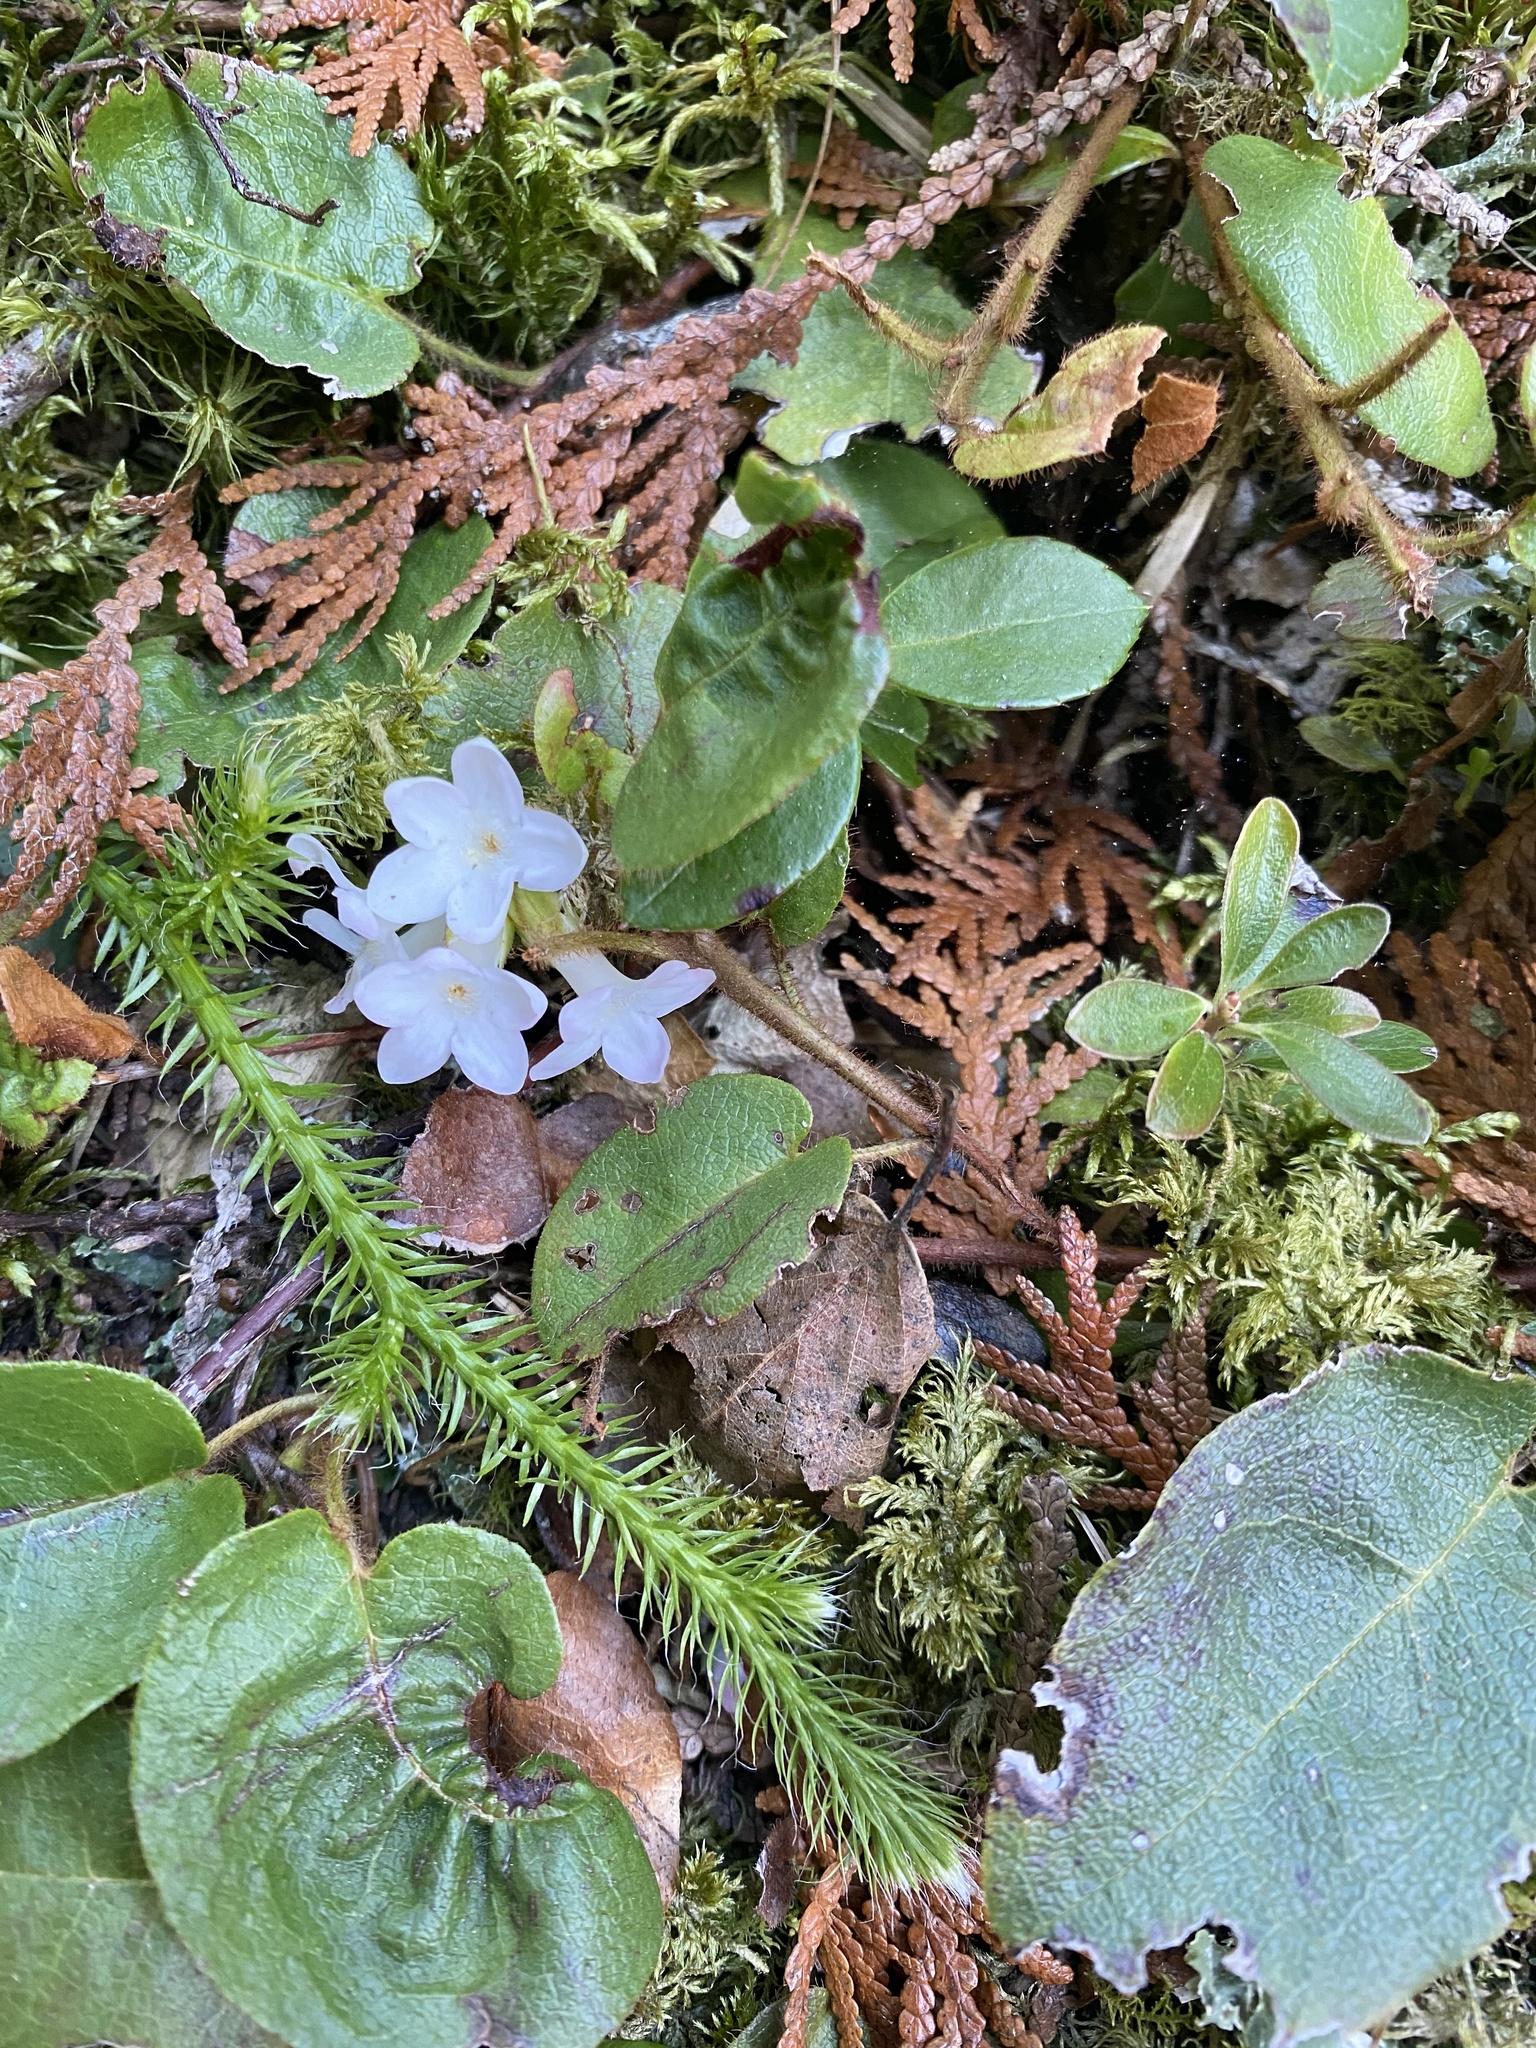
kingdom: Plantae
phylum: Tracheophyta
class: Magnoliopsida
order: Ericales
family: Ericaceae
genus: Epigaea
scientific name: Epigaea repens
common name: Gravelroot
